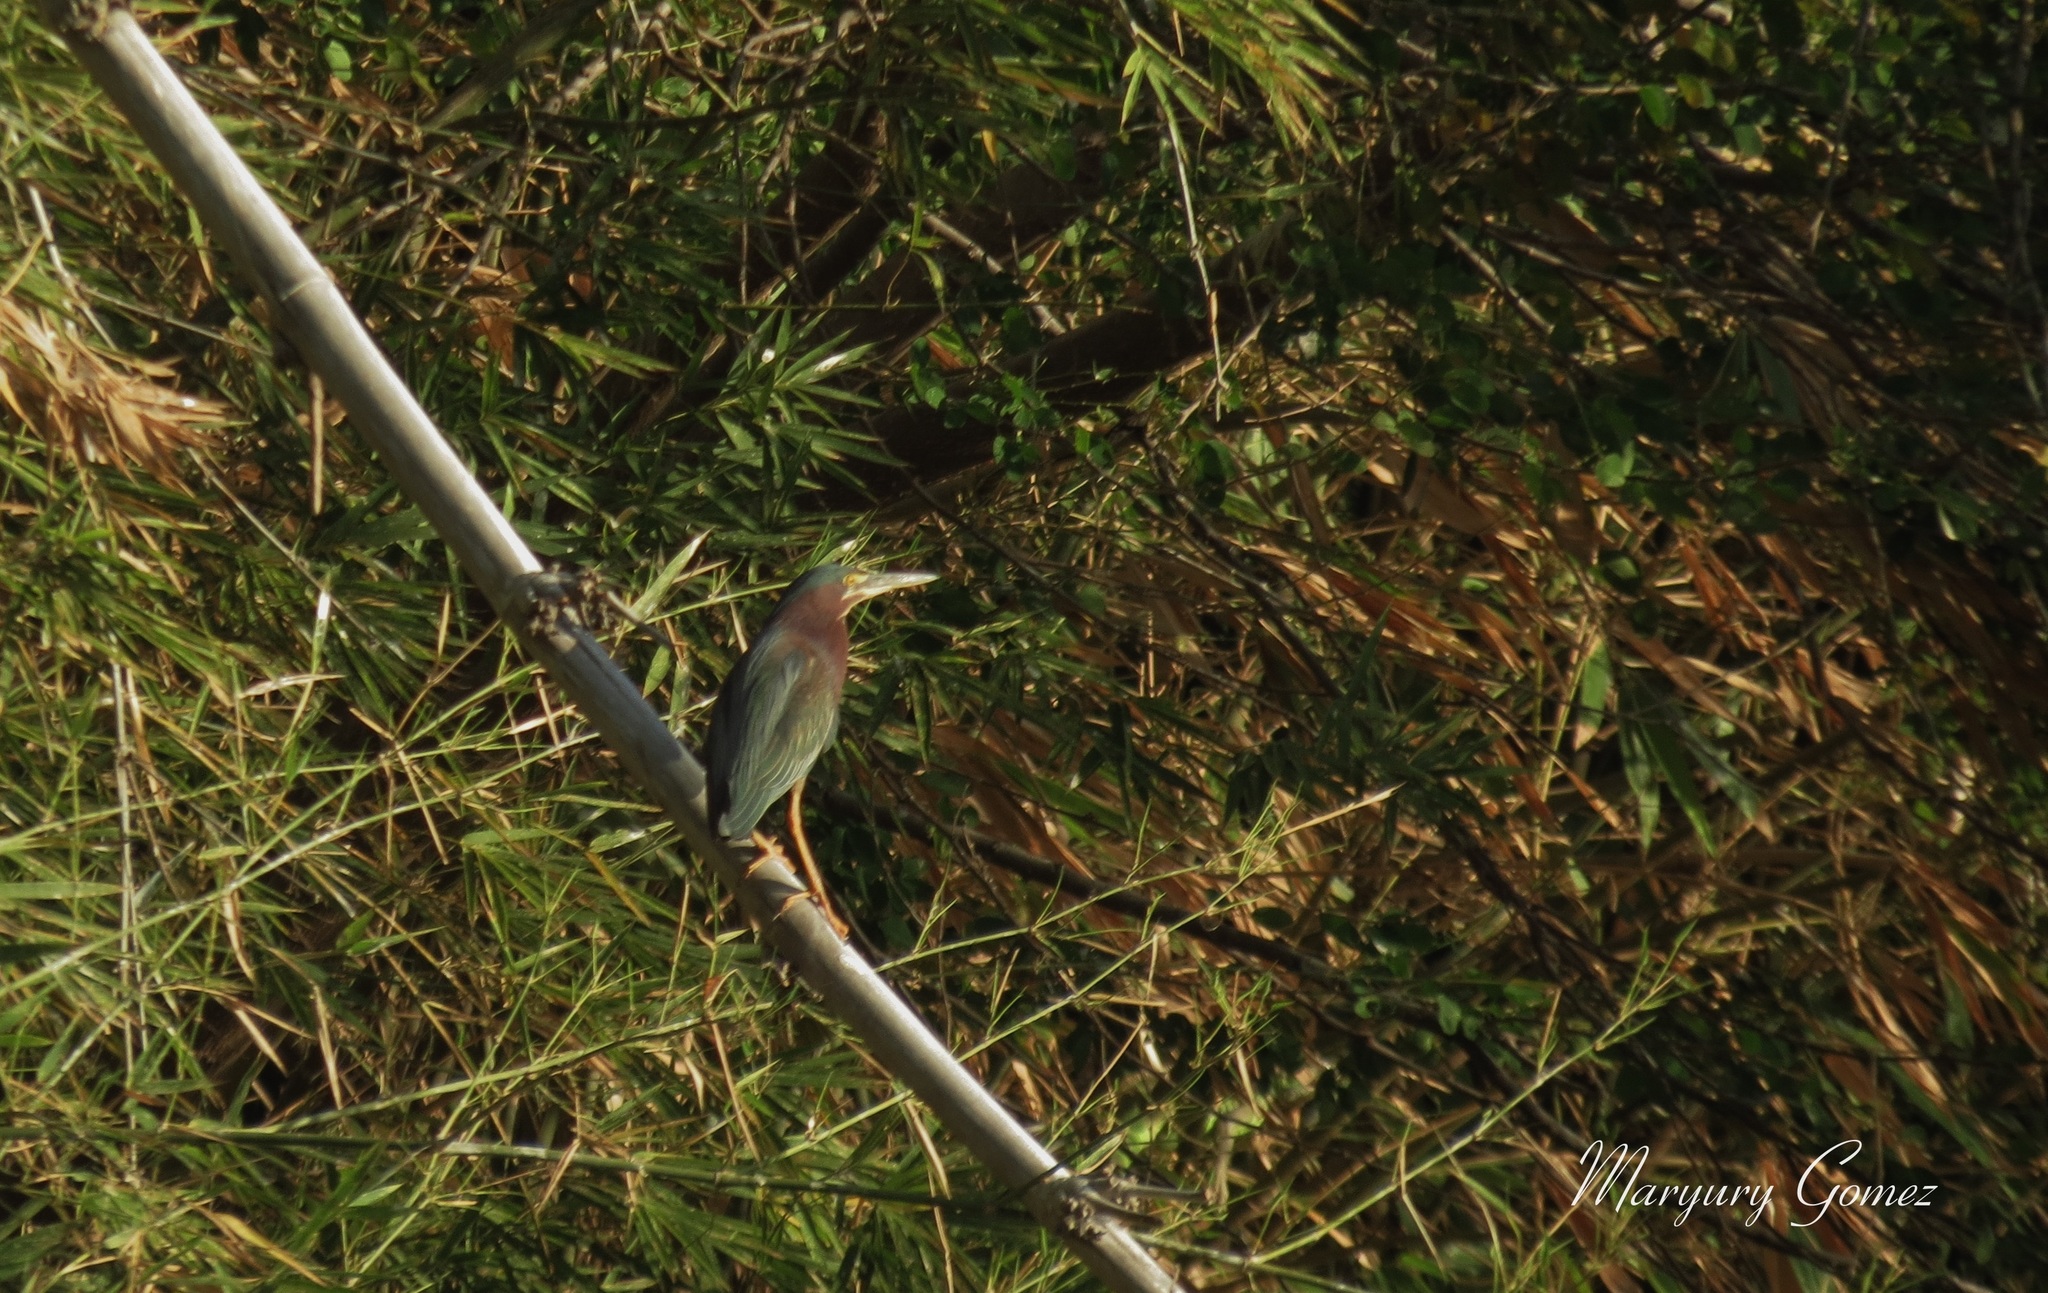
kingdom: Animalia
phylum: Chordata
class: Aves
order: Pelecaniformes
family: Ardeidae
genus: Butorides
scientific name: Butorides virescens
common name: Green heron
